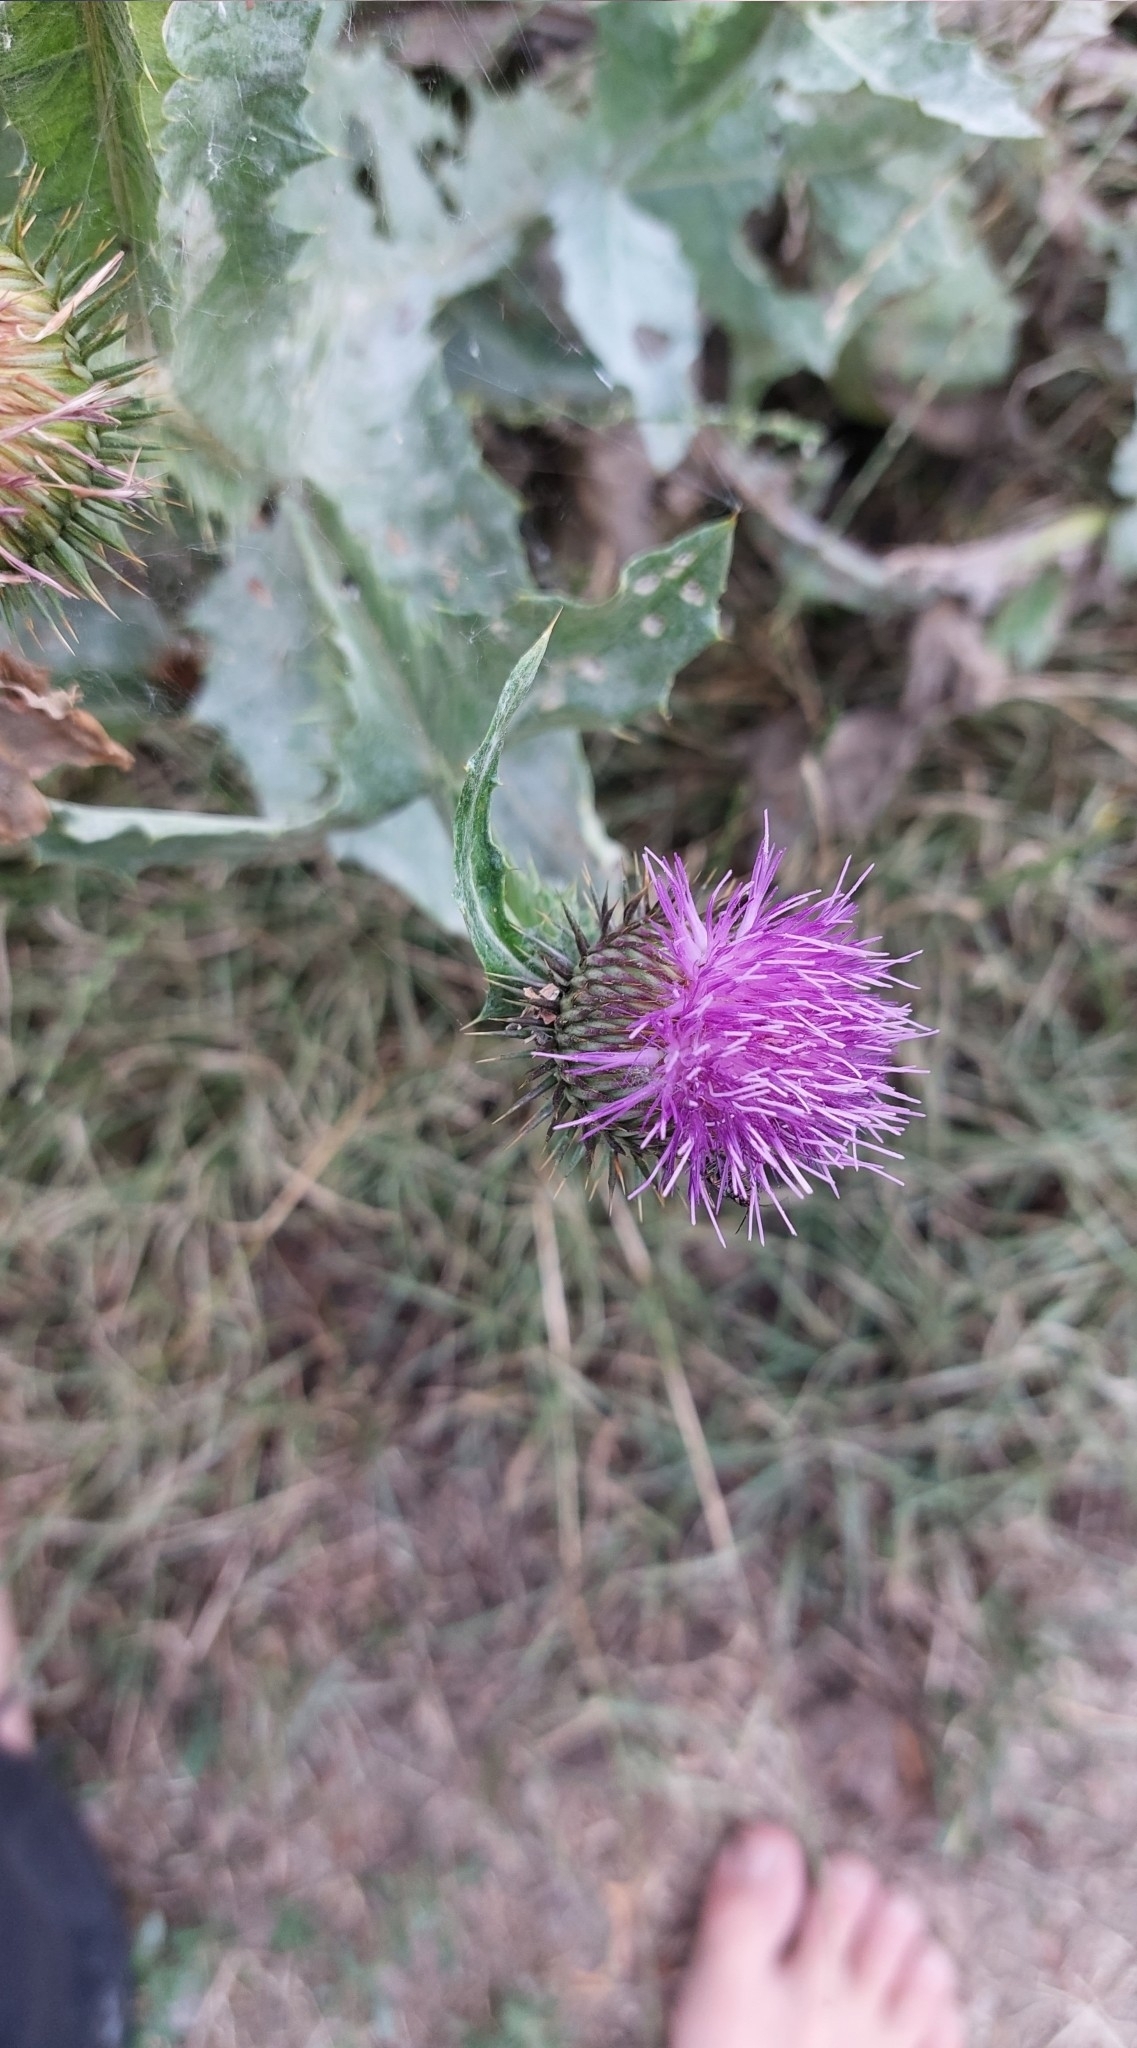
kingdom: Plantae
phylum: Tracheophyta
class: Magnoliopsida
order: Asterales
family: Asteraceae
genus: Onopordum
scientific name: Onopordum acanthium
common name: Scotch thistle
